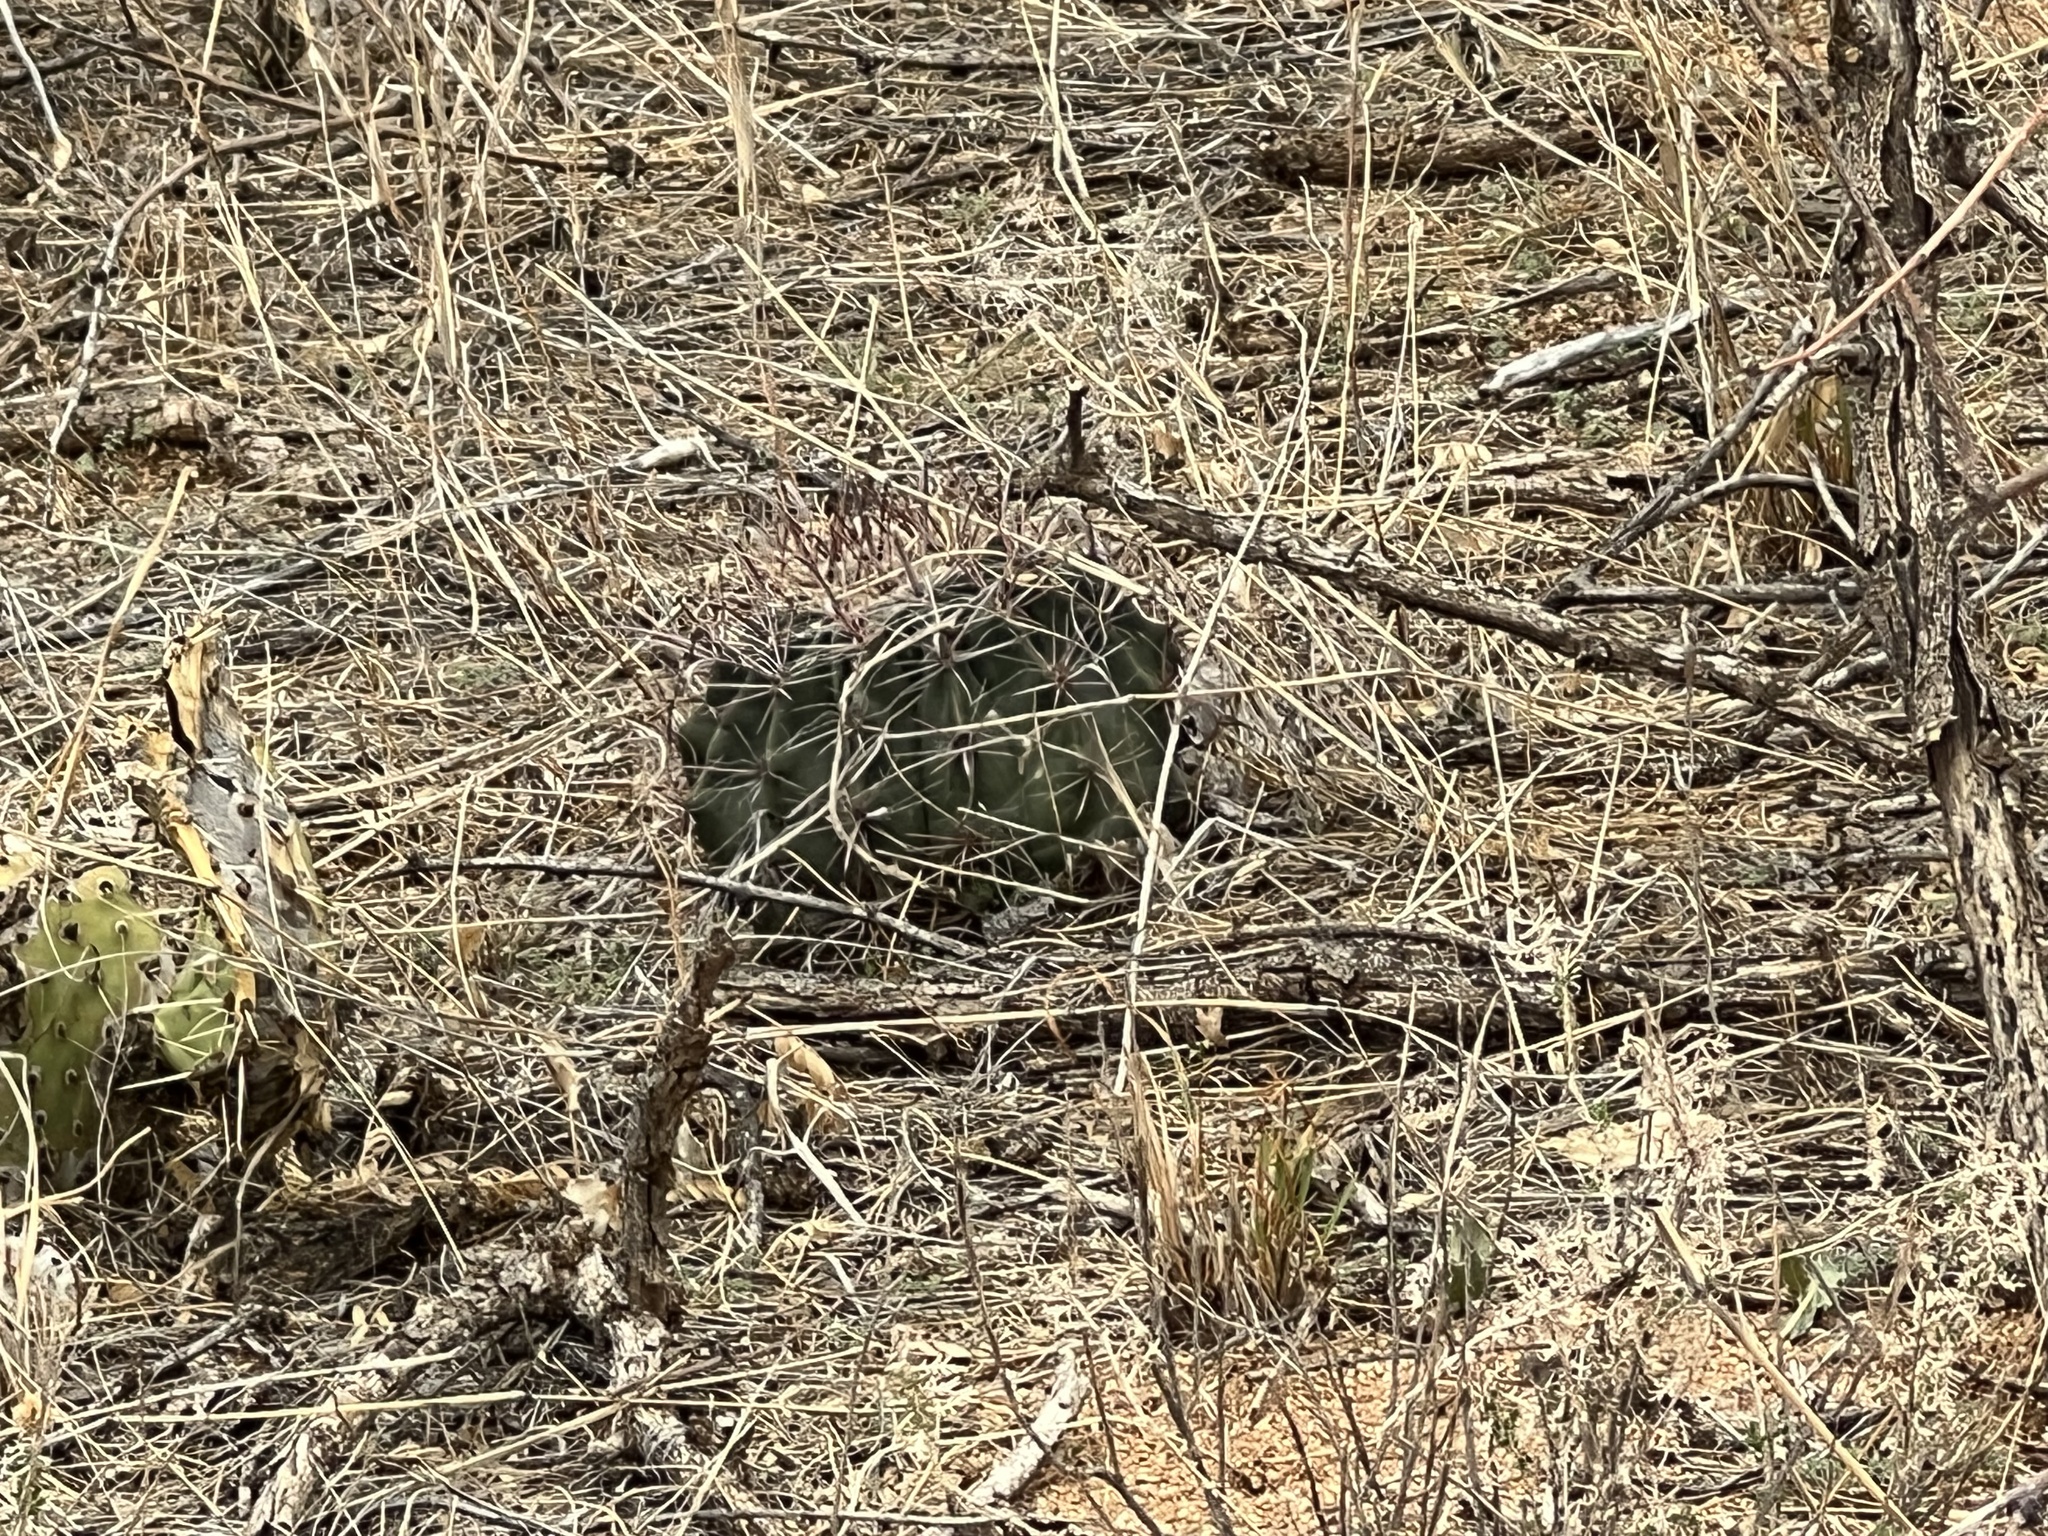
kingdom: Plantae
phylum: Tracheophyta
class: Magnoliopsida
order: Caryophyllales
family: Cactaceae
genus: Ferocactus
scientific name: Ferocactus wislizeni
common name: Candy barrel cactus
